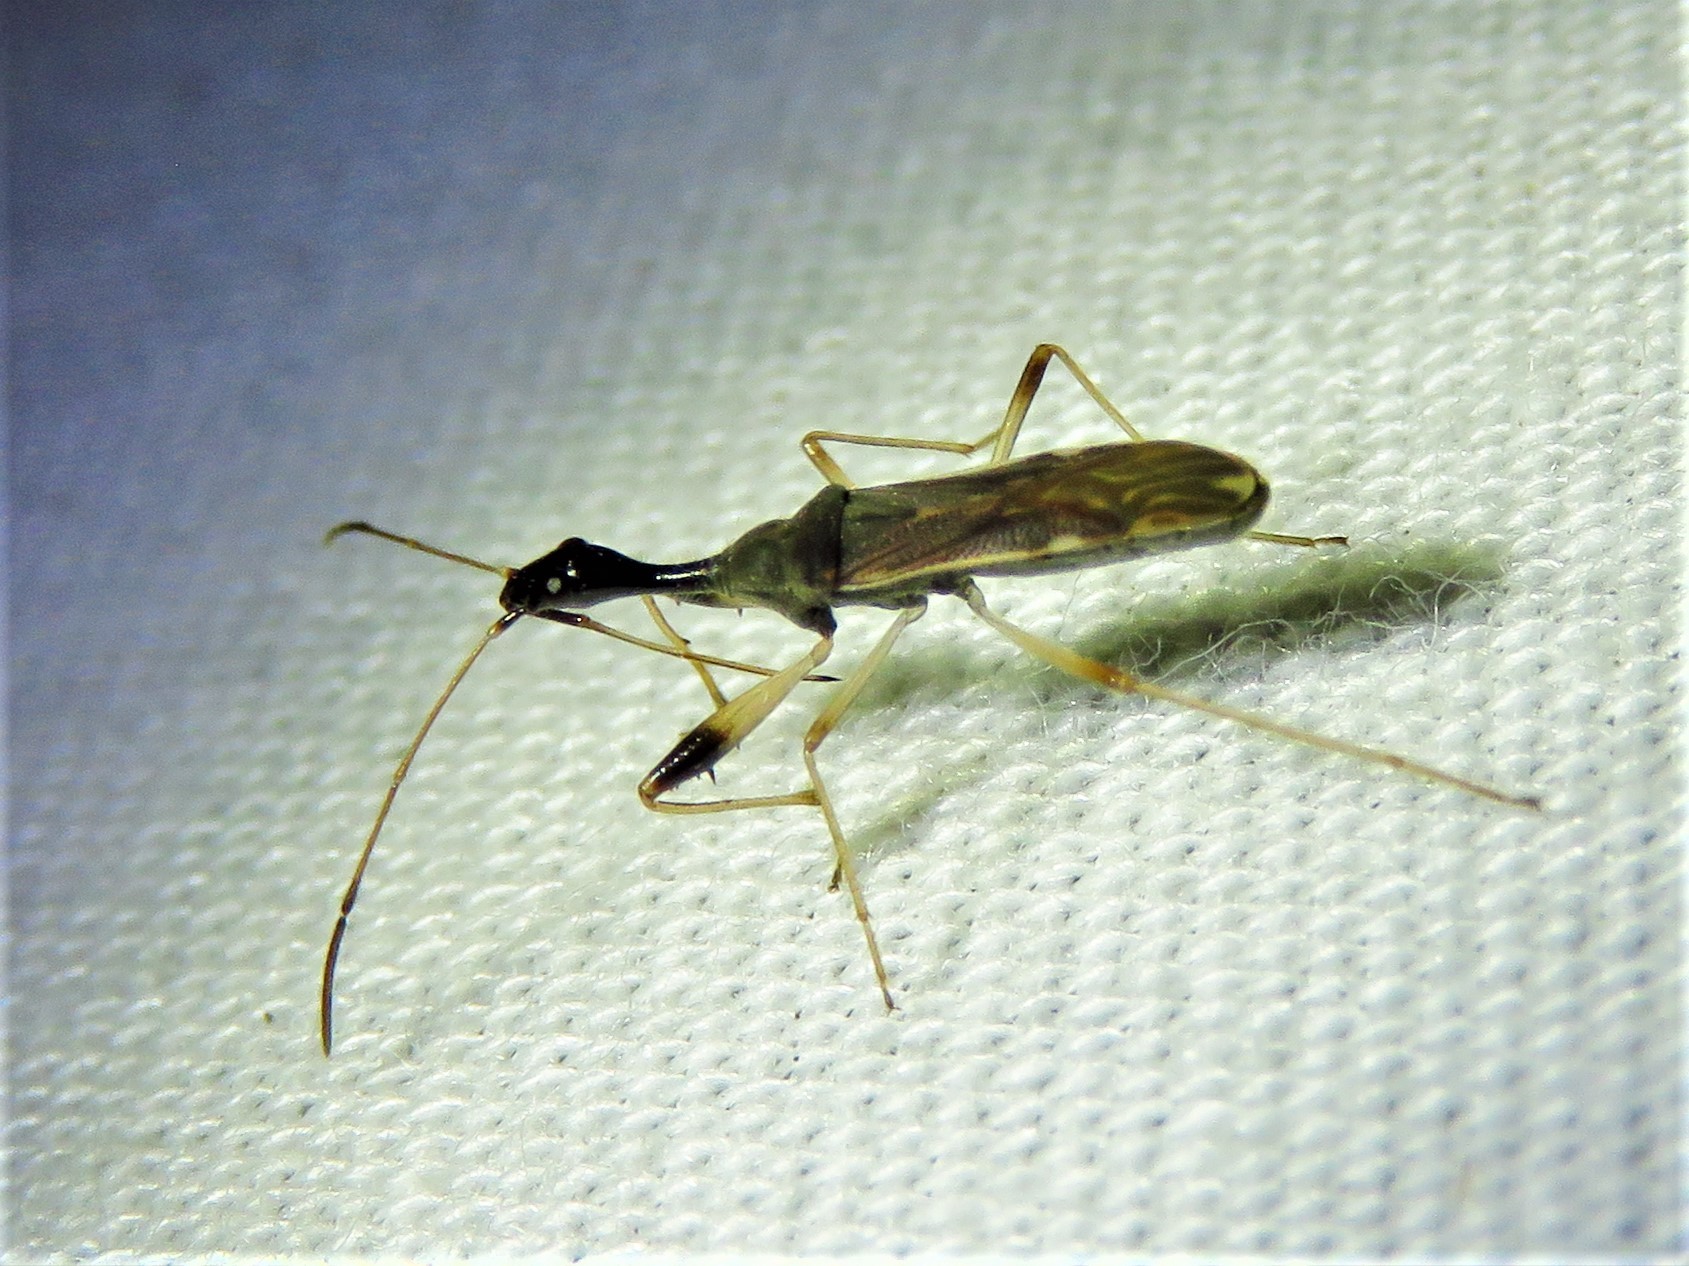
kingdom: Animalia
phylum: Arthropoda
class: Insecta
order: Hemiptera
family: Rhyparochromidae
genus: Myodocha
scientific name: Myodocha serripes
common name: Long-necked seed bug
